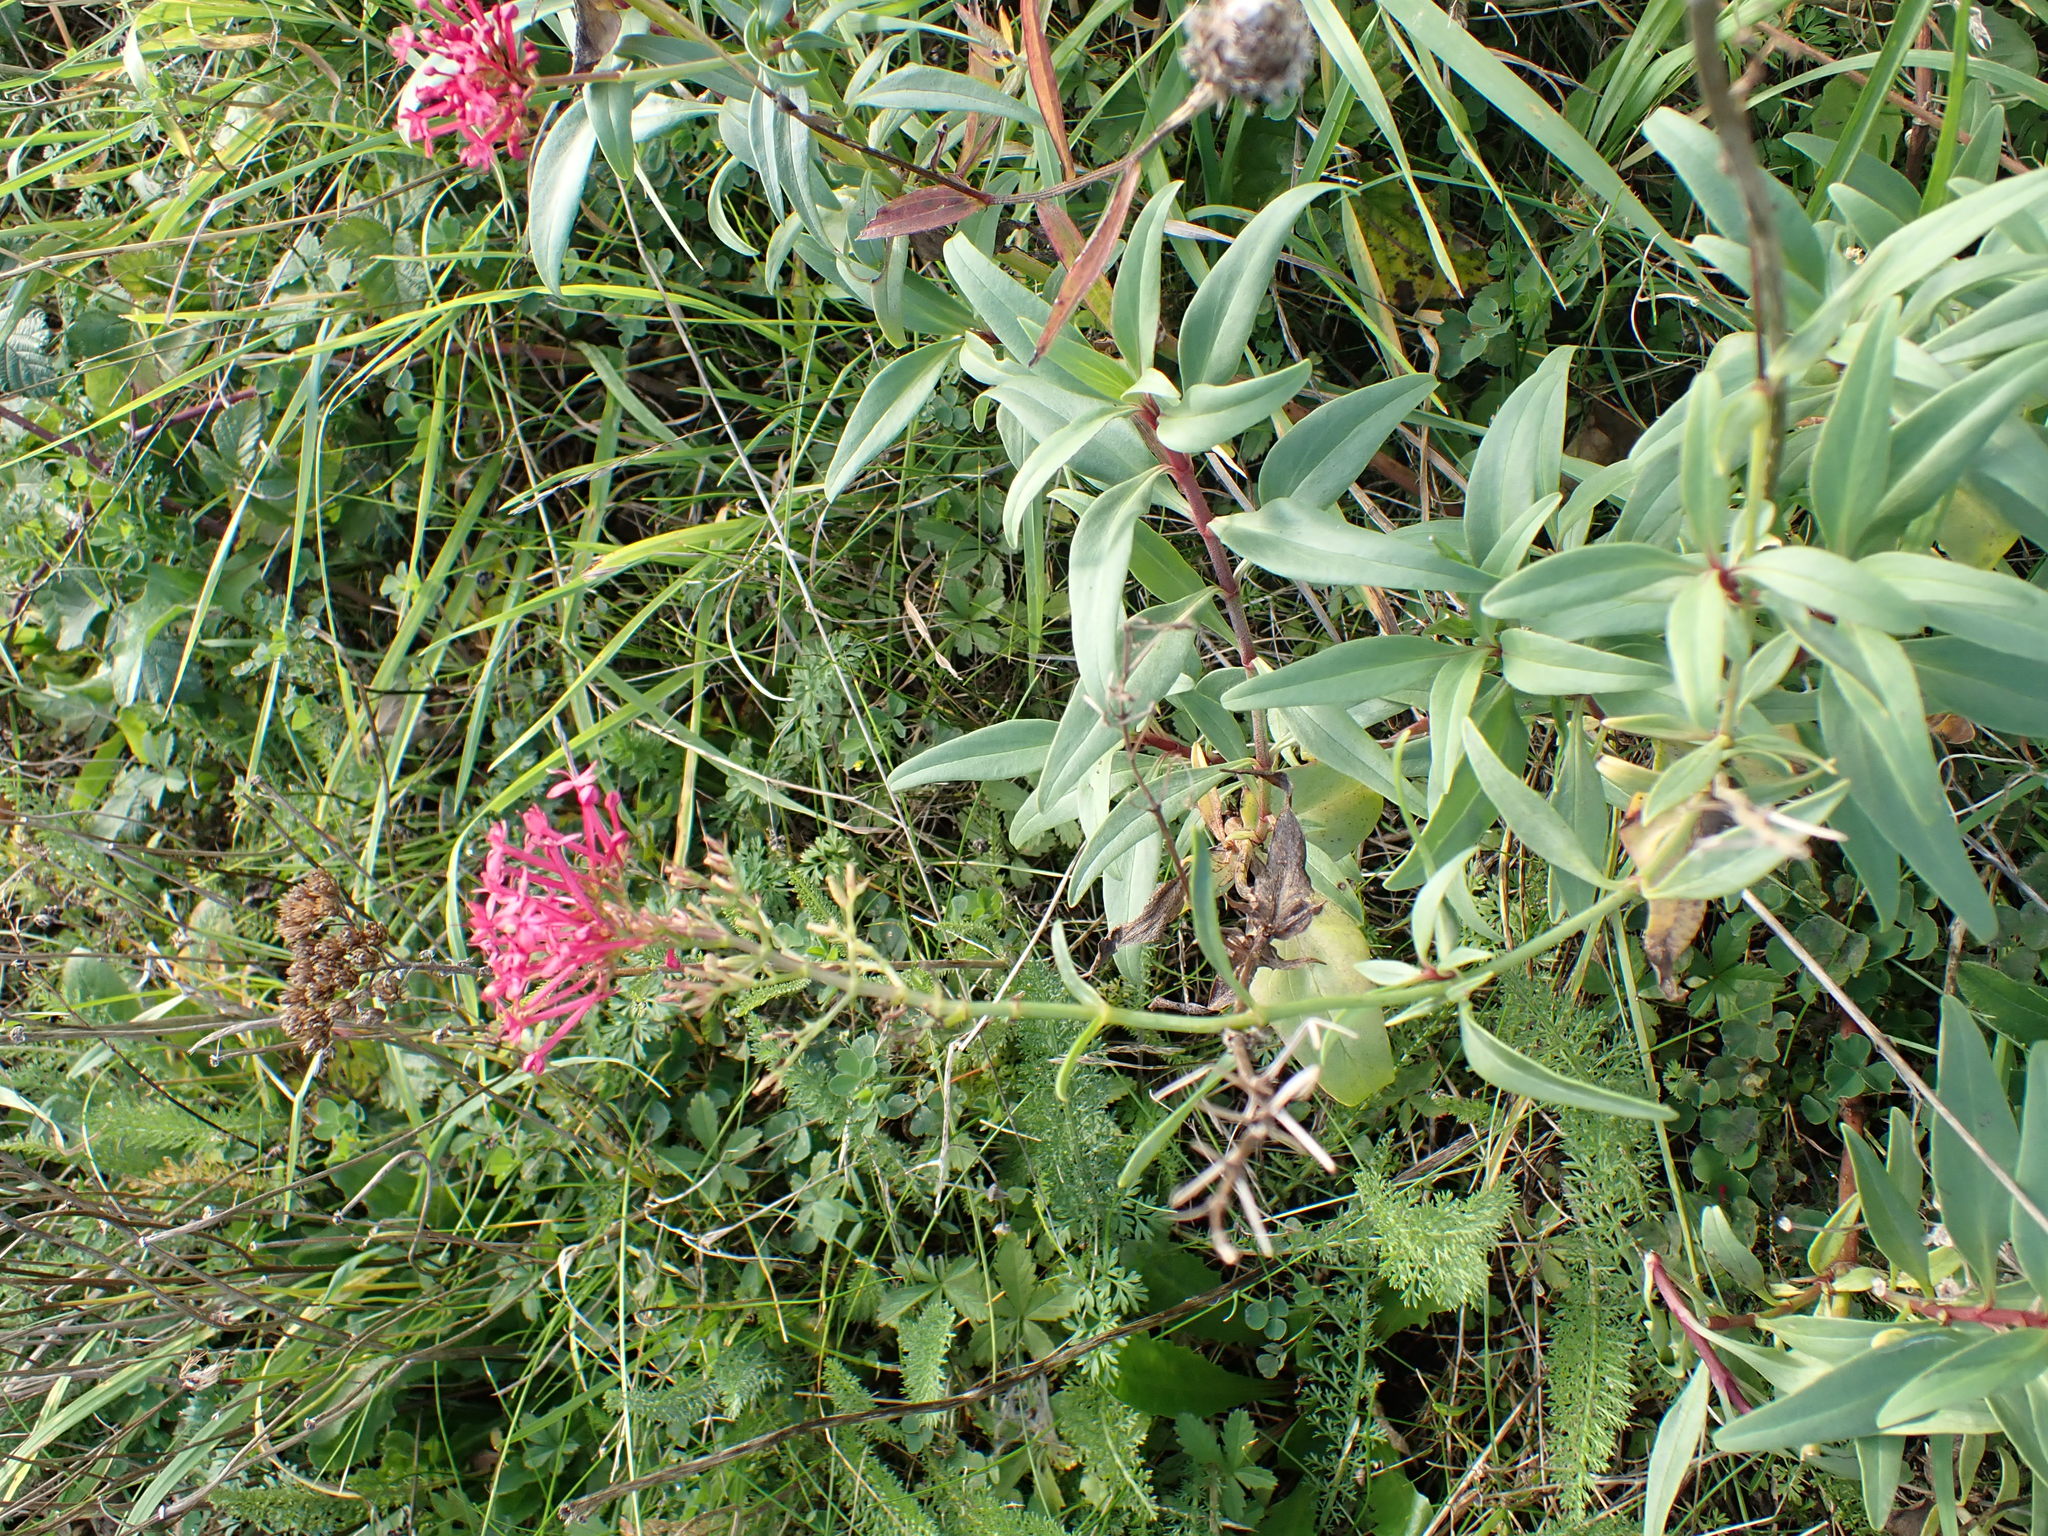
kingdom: Plantae
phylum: Tracheophyta
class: Magnoliopsida
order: Dipsacales
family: Caprifoliaceae
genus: Centranthus
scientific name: Centranthus ruber
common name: Red valerian
